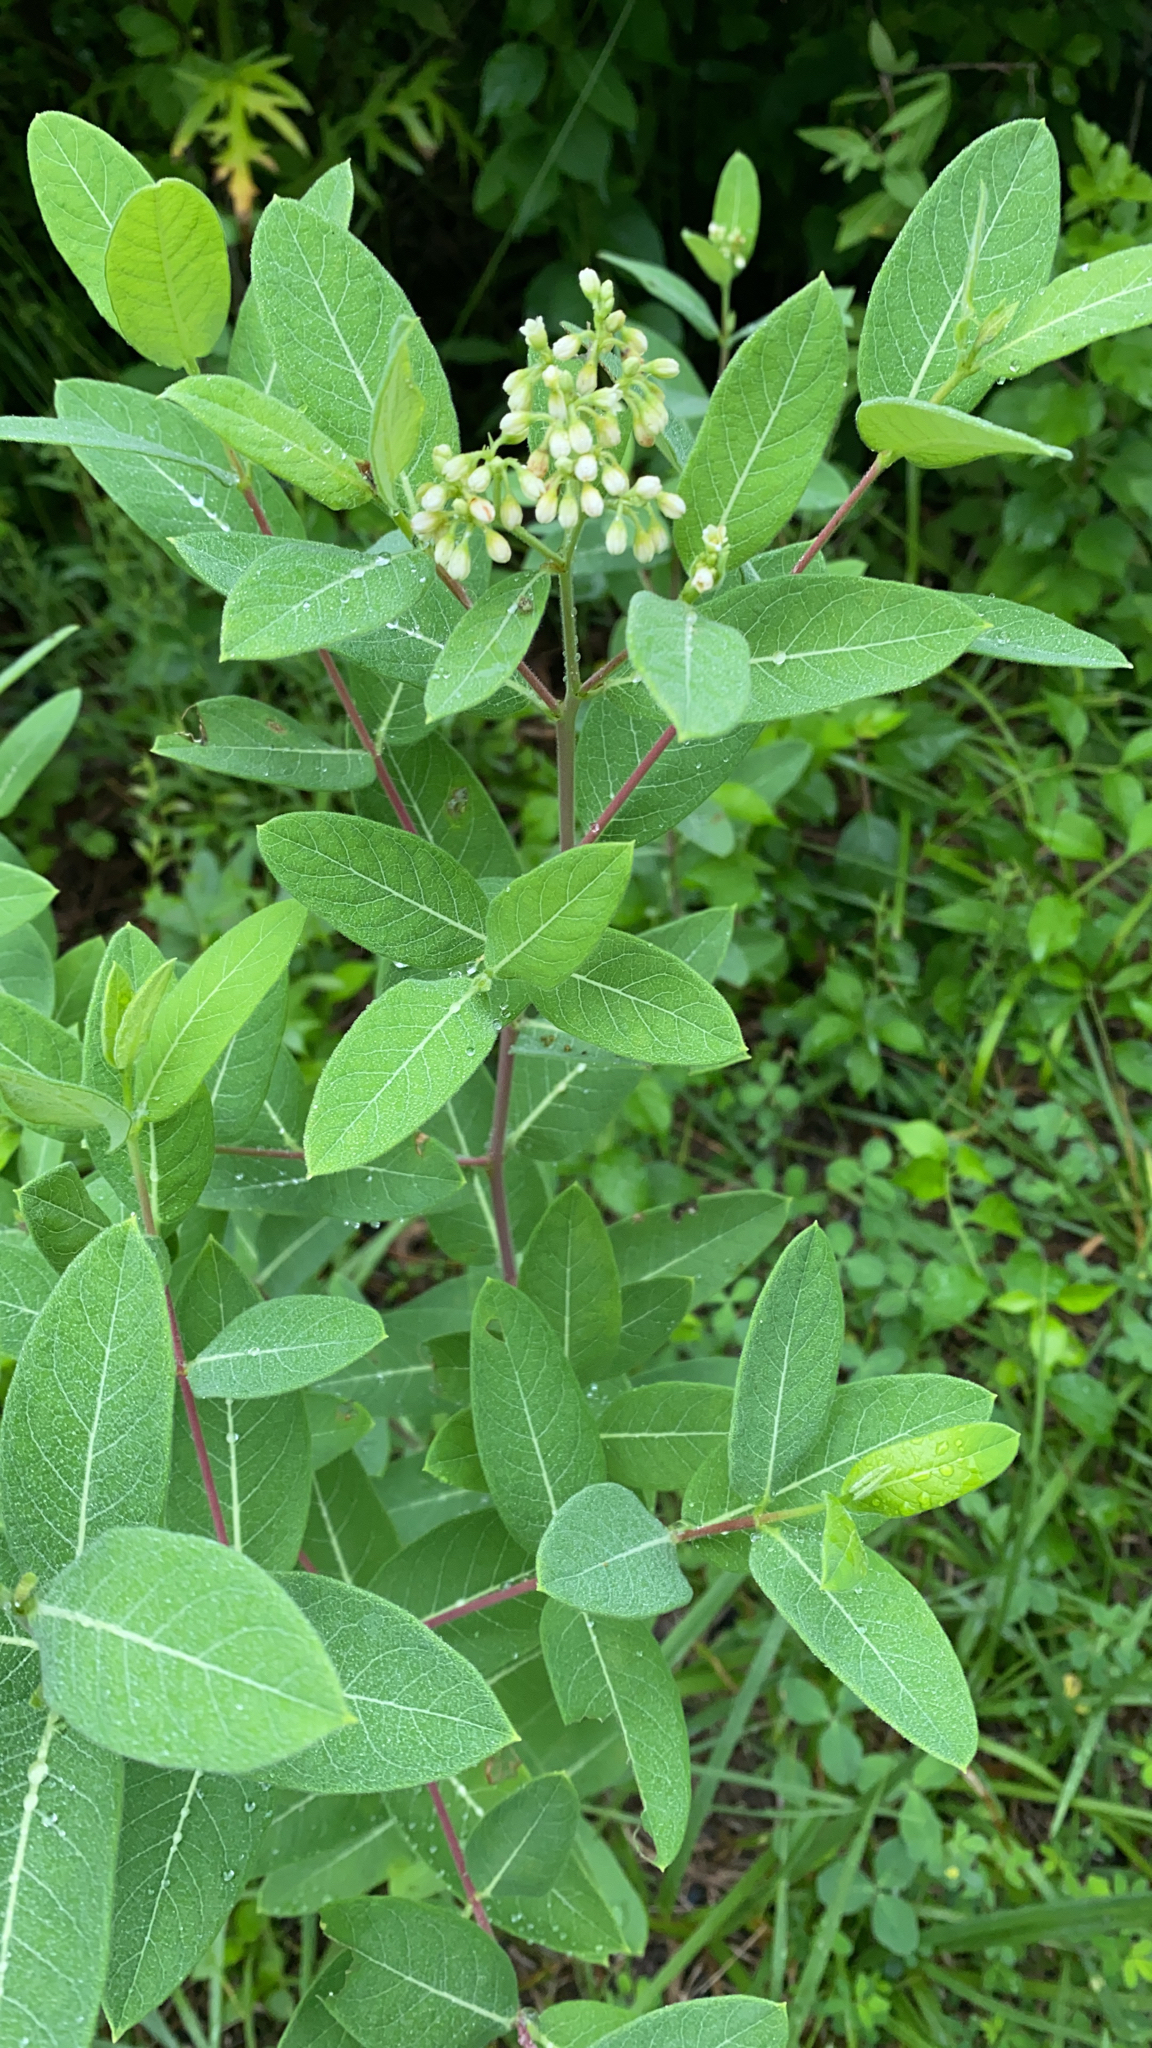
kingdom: Plantae
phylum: Tracheophyta
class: Magnoliopsida
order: Gentianales
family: Apocynaceae
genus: Apocynum
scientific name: Apocynum cannabinum
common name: Hemp dogbane
